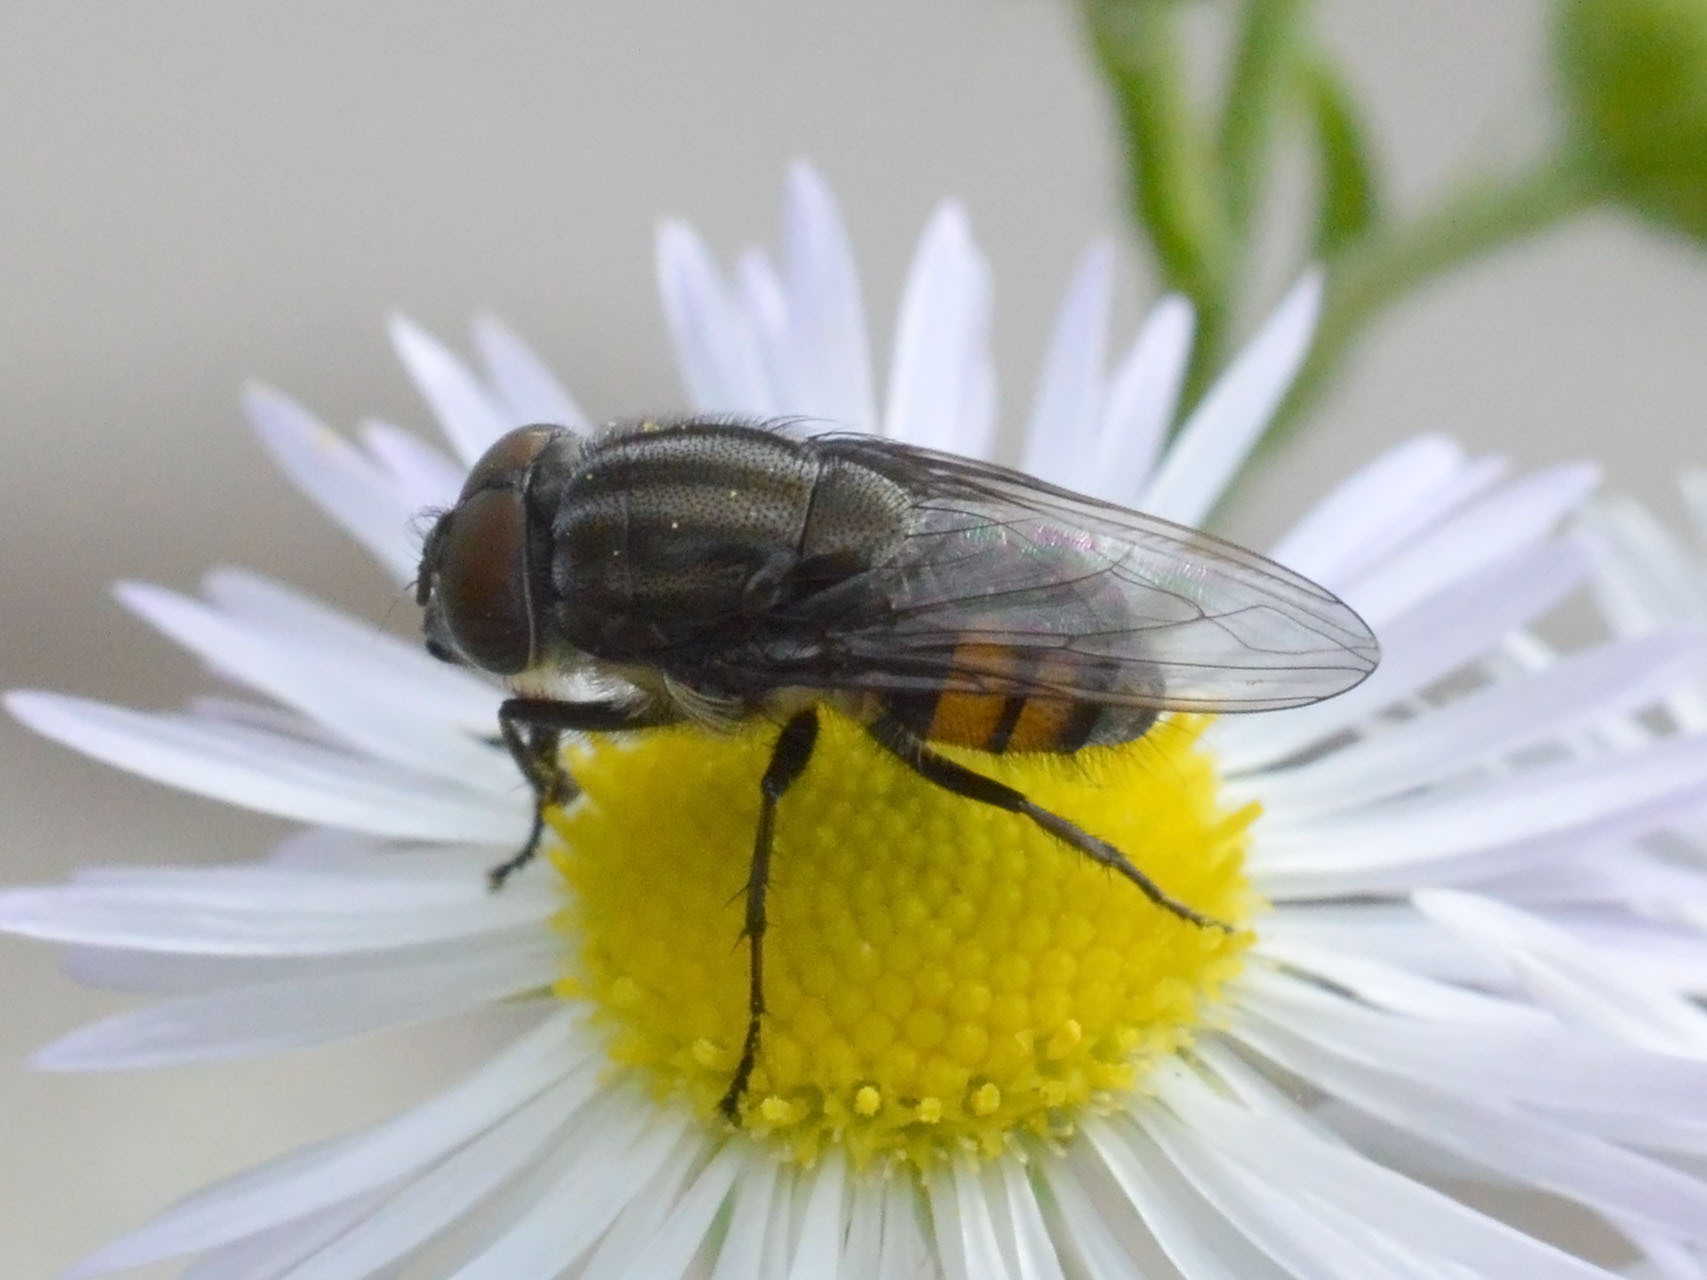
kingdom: Animalia
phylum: Arthropoda
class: Insecta
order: Diptera
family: Calliphoridae
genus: Stomorhina
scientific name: Stomorhina lunata
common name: Locust blowfly
